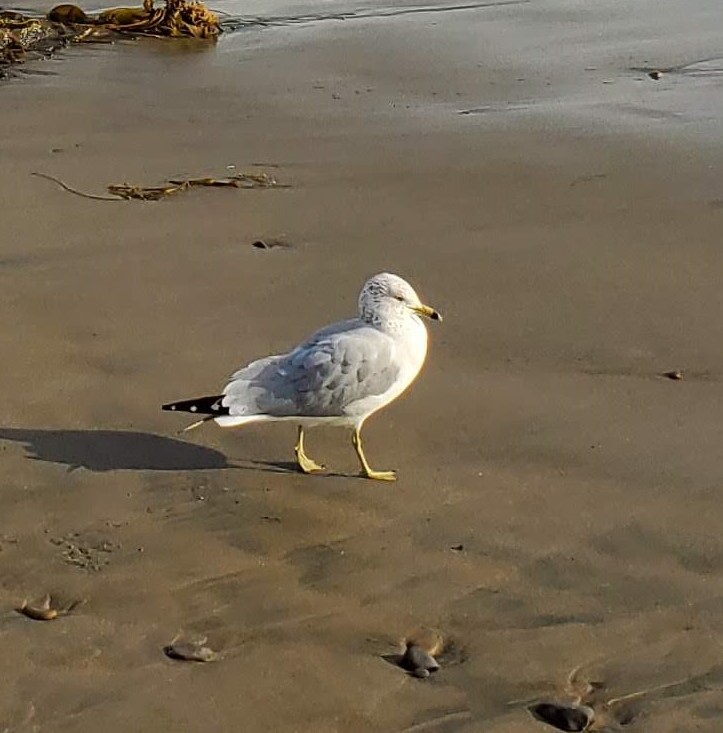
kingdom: Animalia
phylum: Chordata
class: Aves
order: Charadriiformes
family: Laridae
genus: Larus
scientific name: Larus delawarensis
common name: Ring-billed gull
